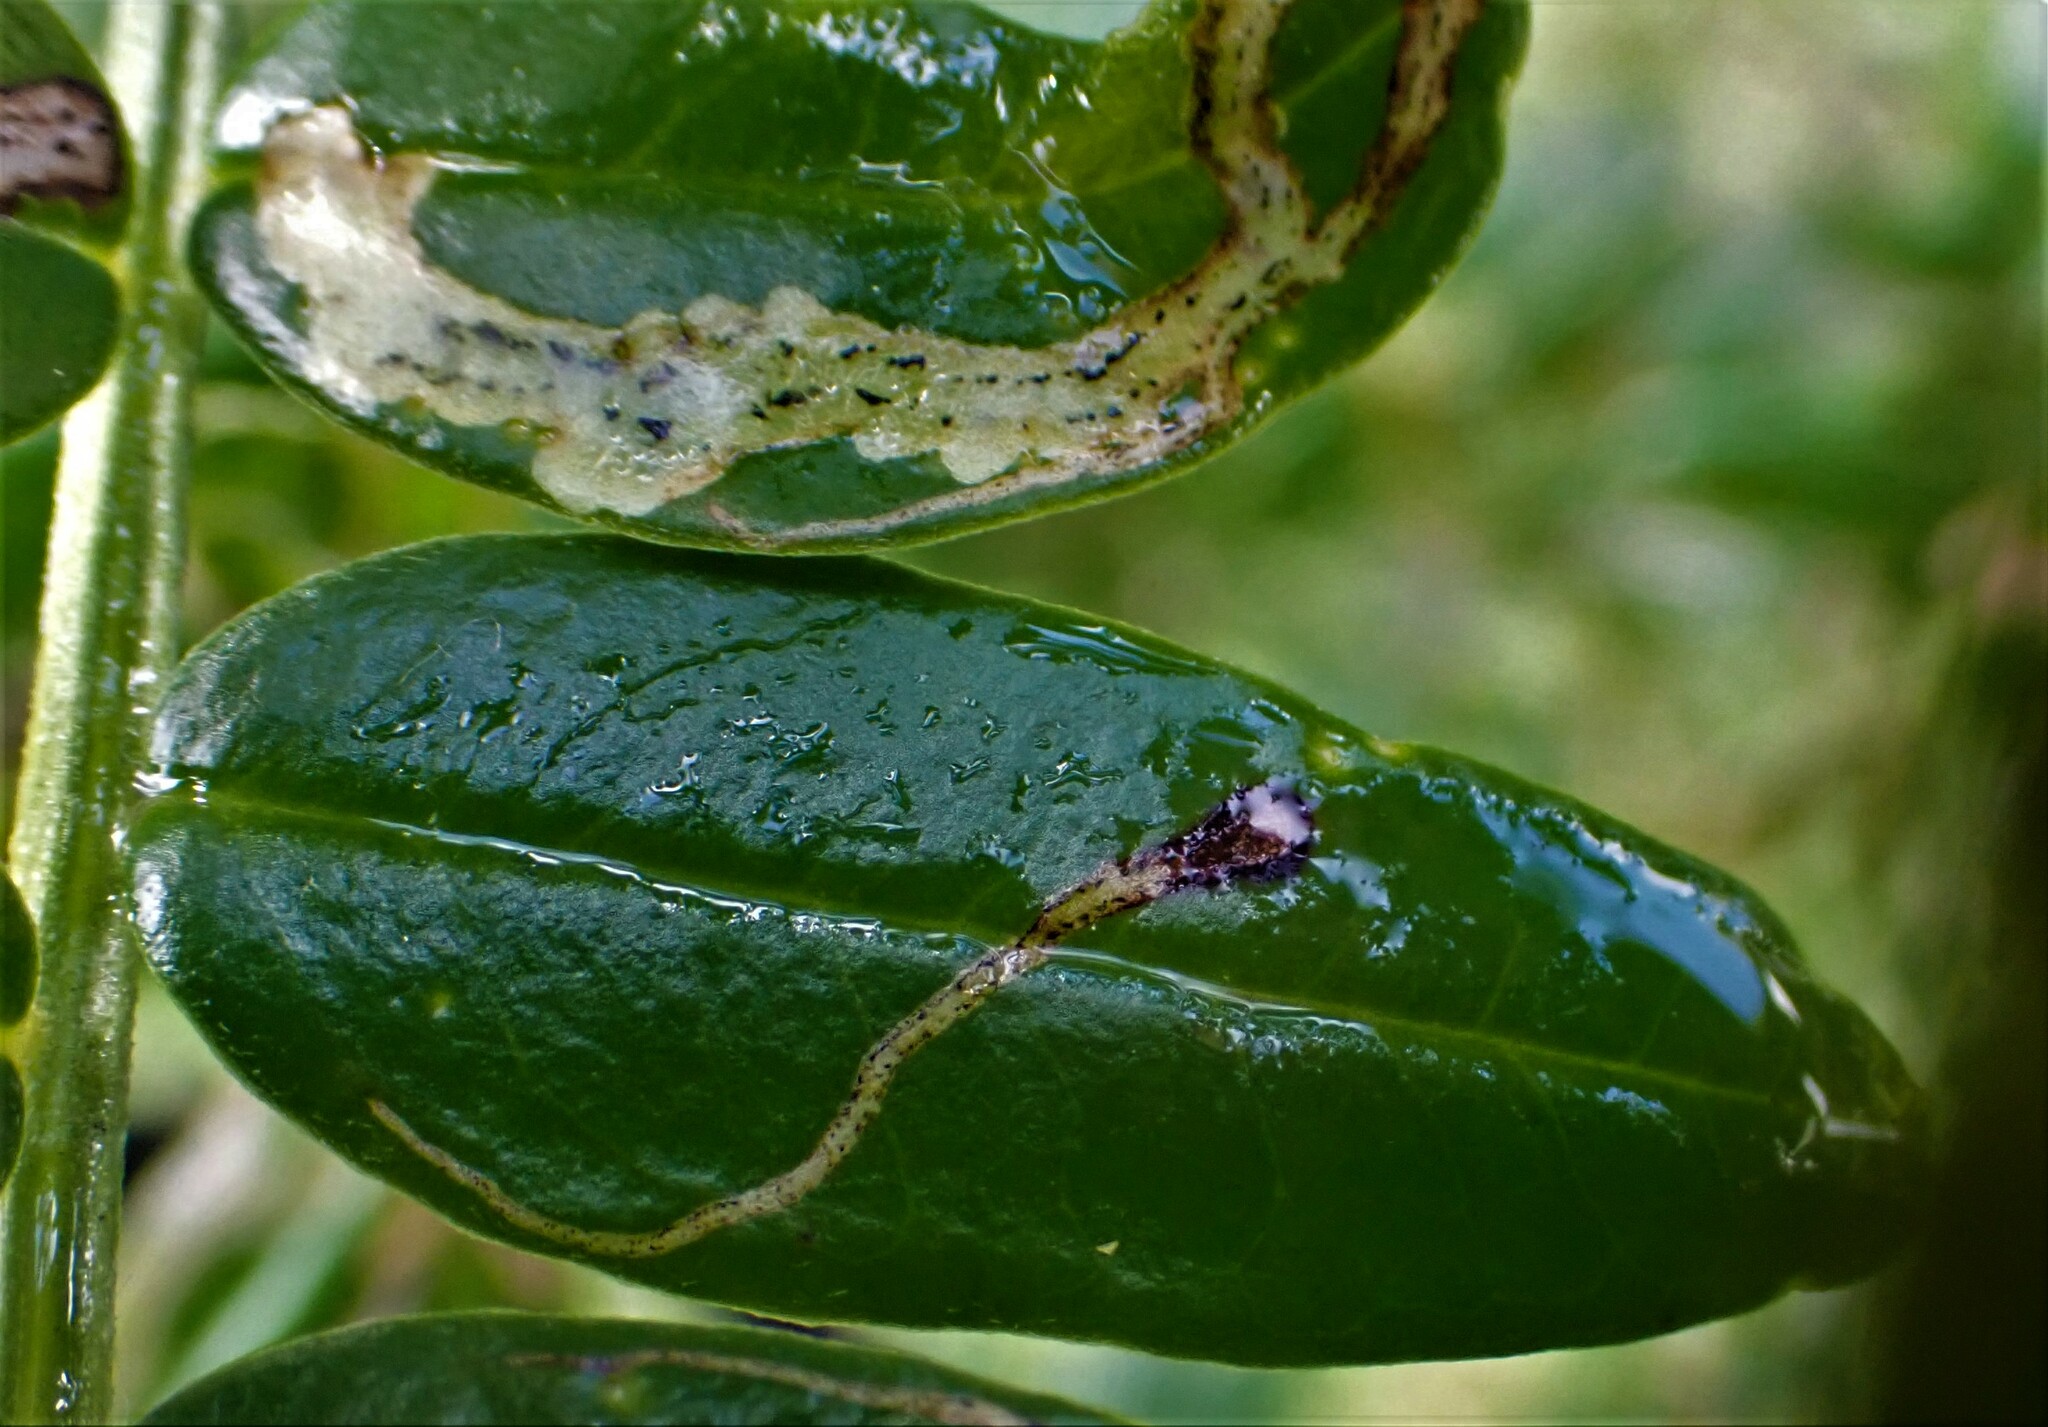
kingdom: Animalia
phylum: Arthropoda
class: Insecta
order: Diptera
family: Agromyzidae
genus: Liriomyza
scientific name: Liriomyza clianthi
